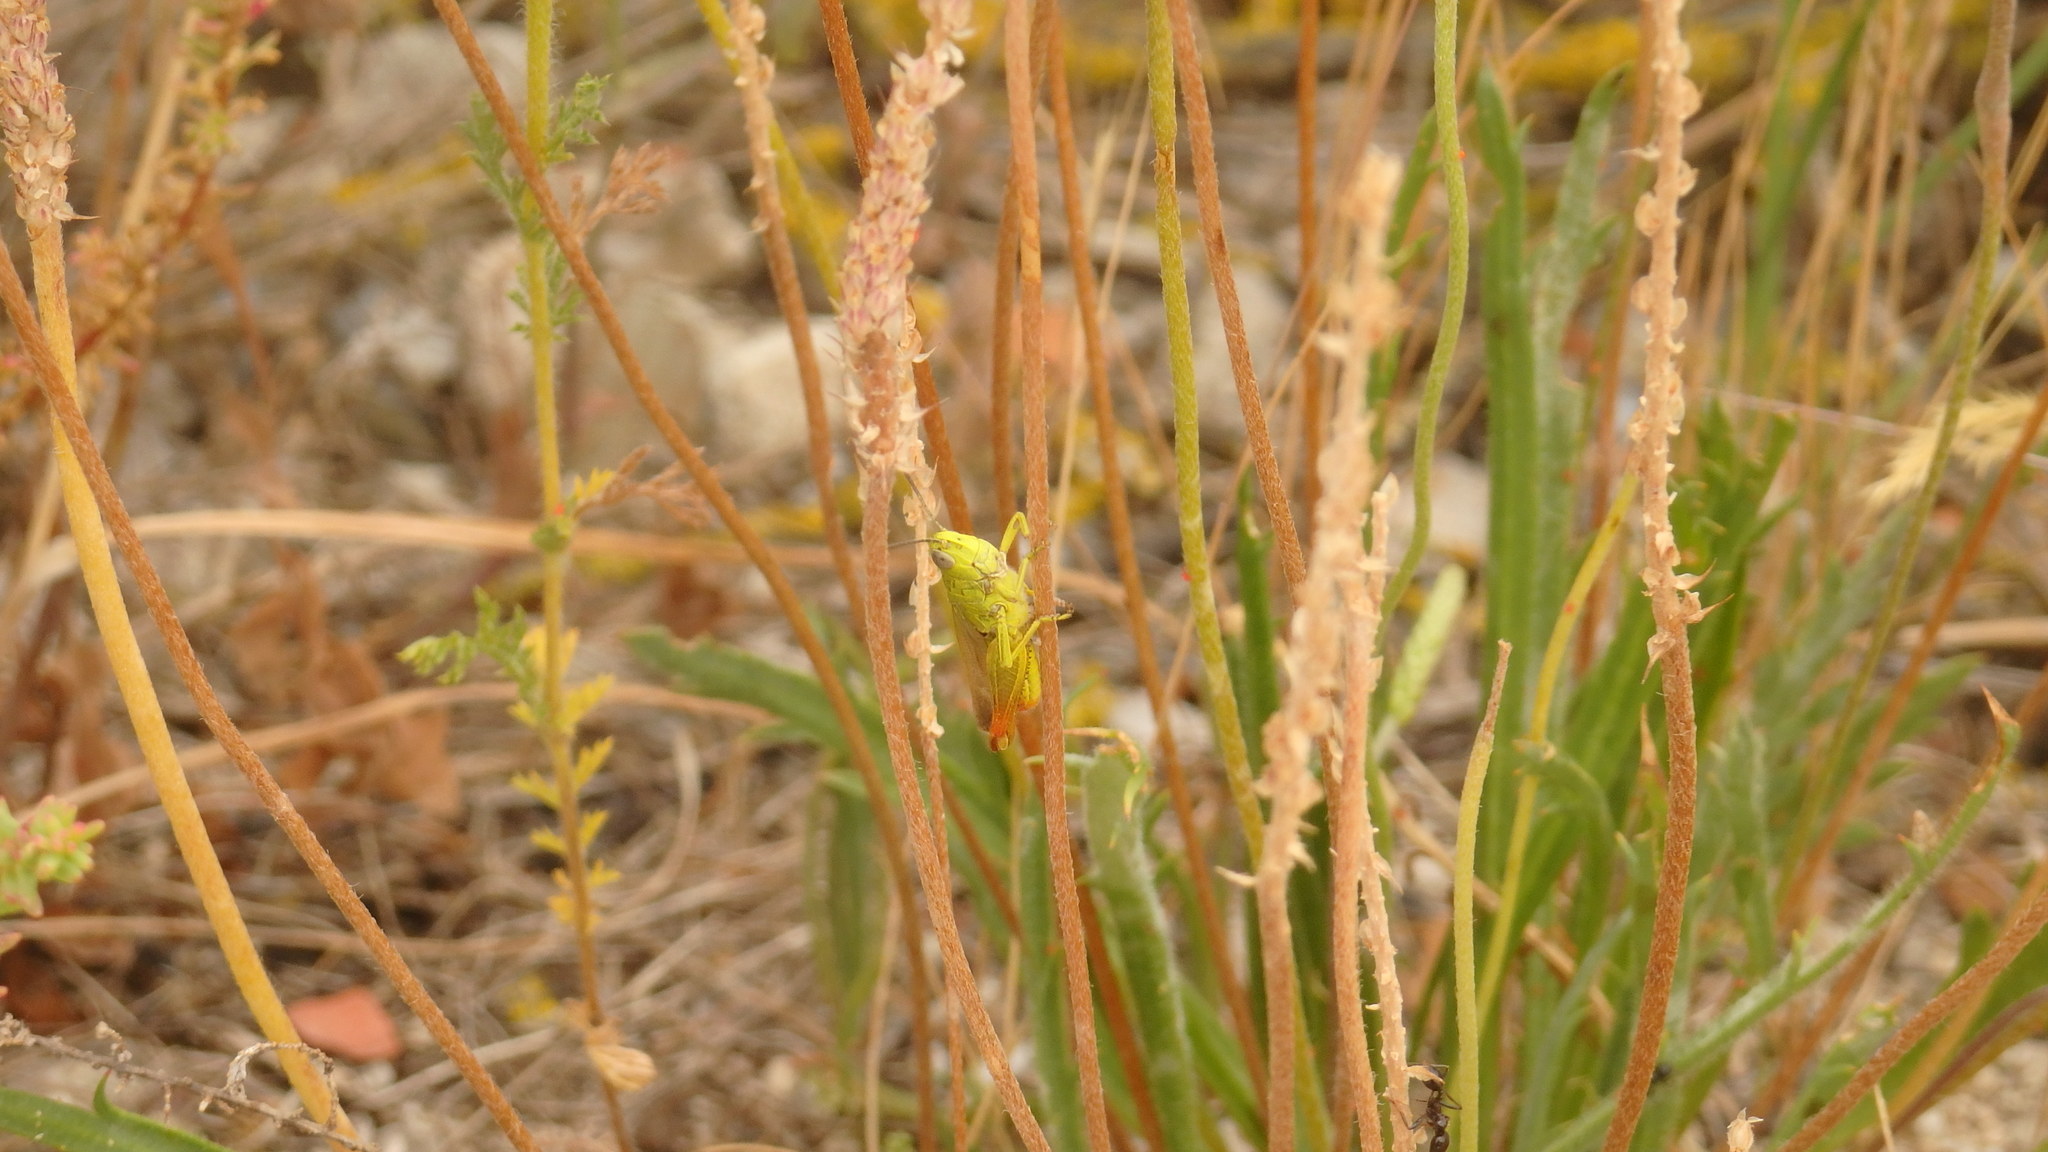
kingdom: Animalia
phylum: Arthropoda
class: Insecta
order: Orthoptera
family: Acrididae
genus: Chorthippus
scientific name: Chorthippus apicalis
